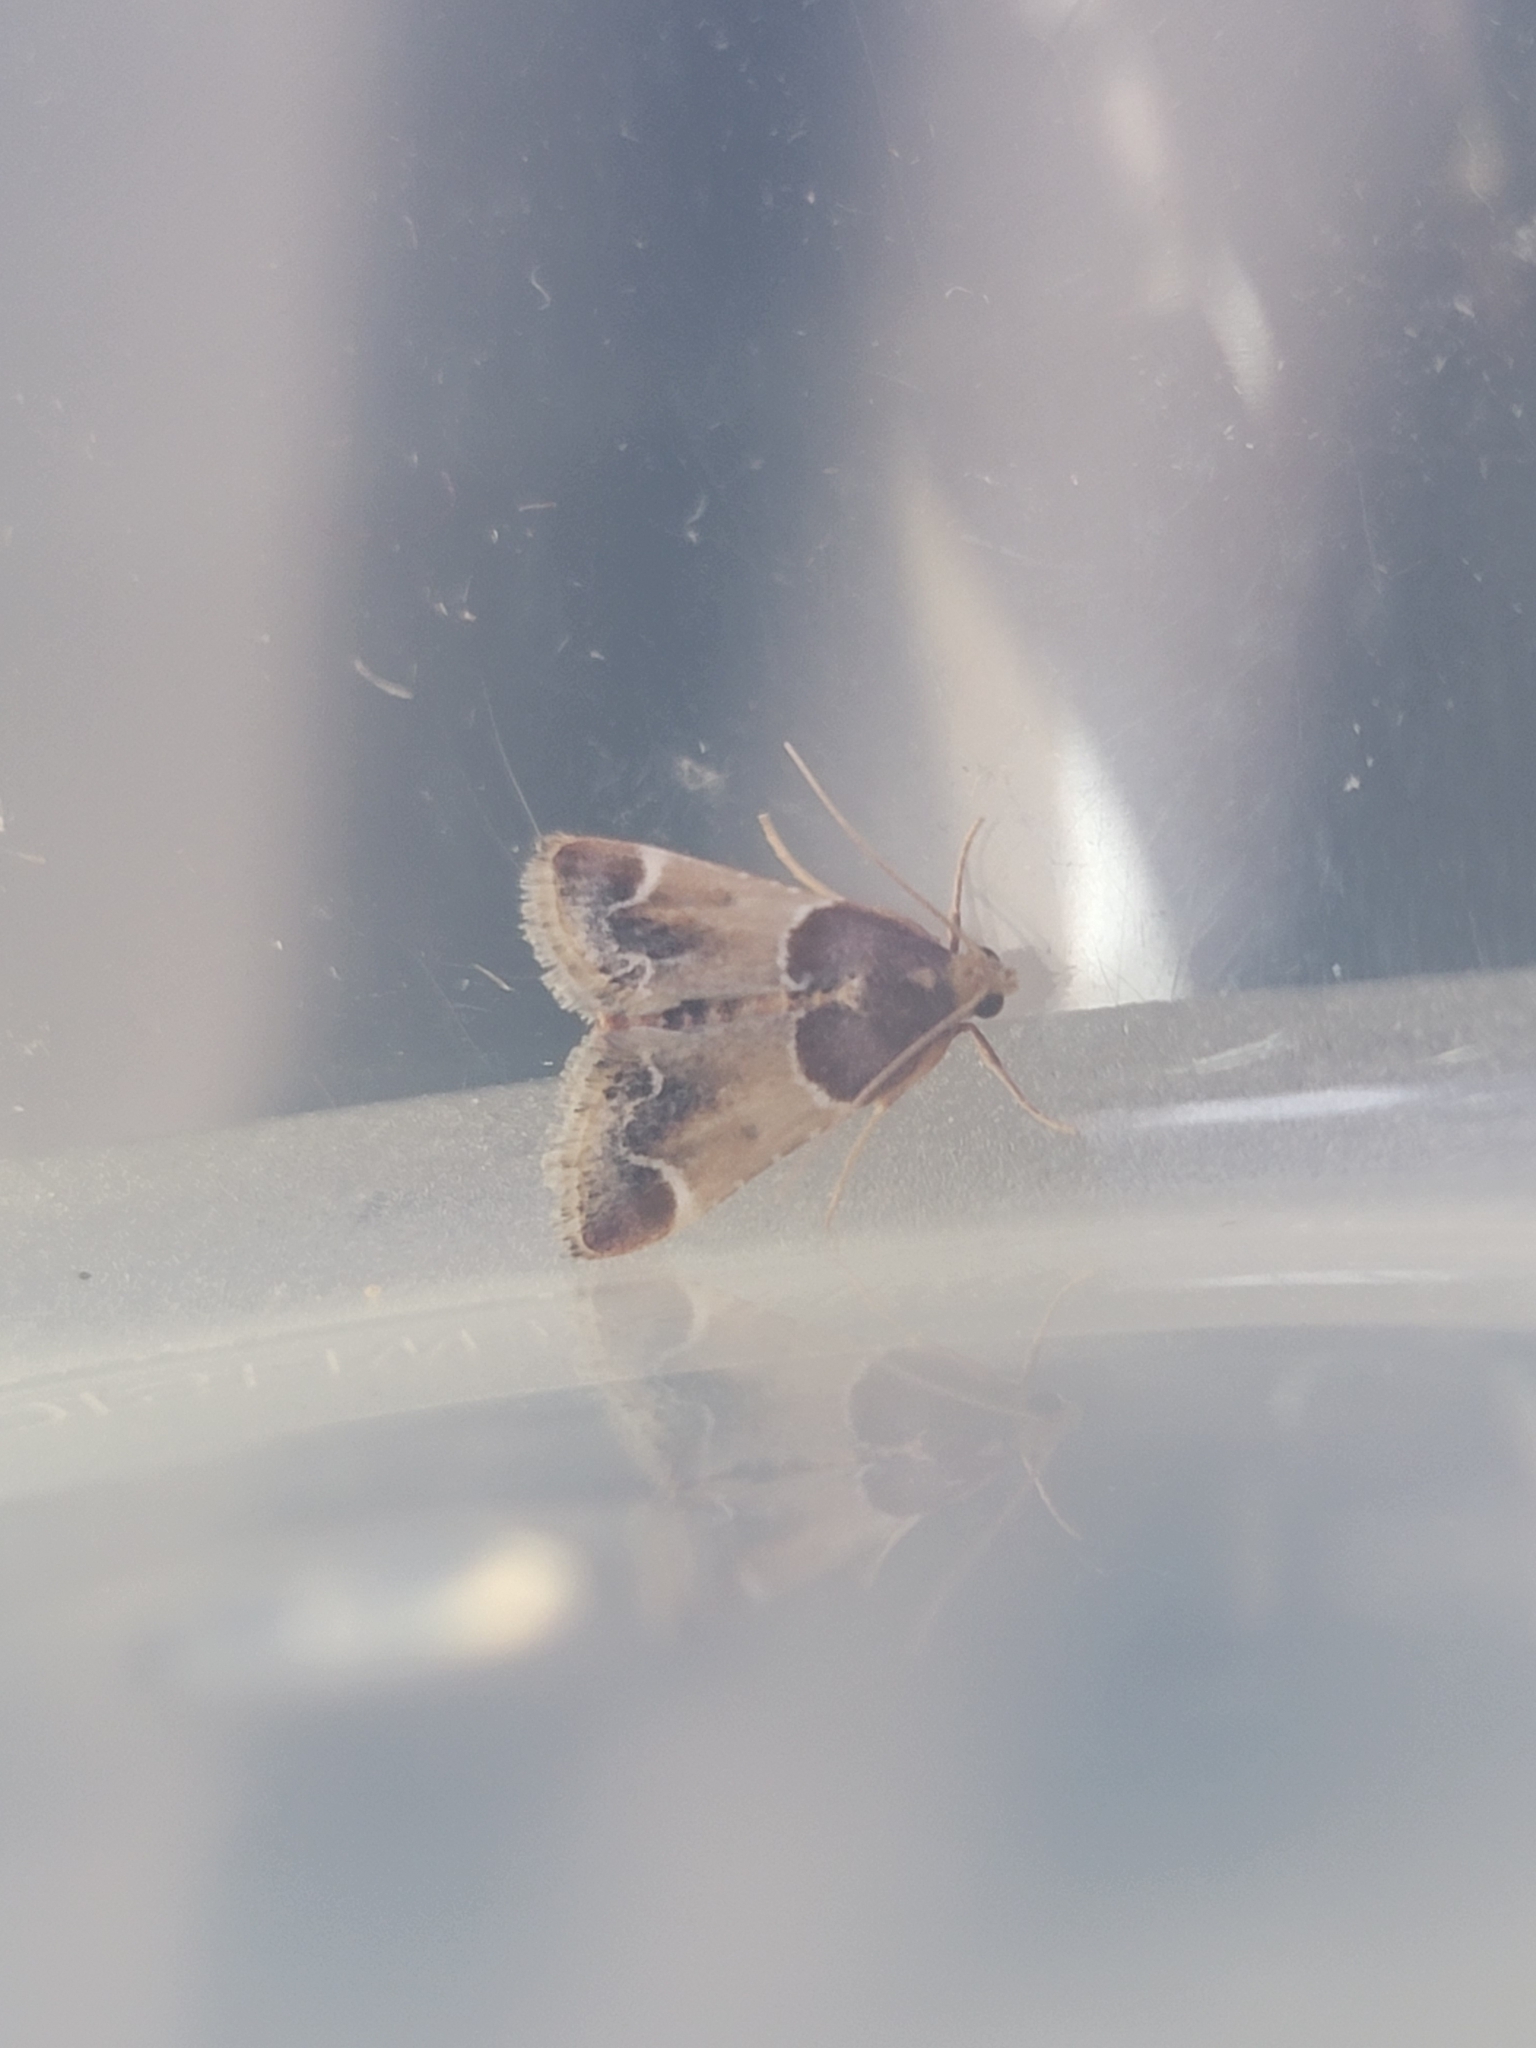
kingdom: Animalia
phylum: Arthropoda
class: Insecta
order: Lepidoptera
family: Pyralidae
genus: Pyralis
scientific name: Pyralis farinalis
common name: Meal moth
